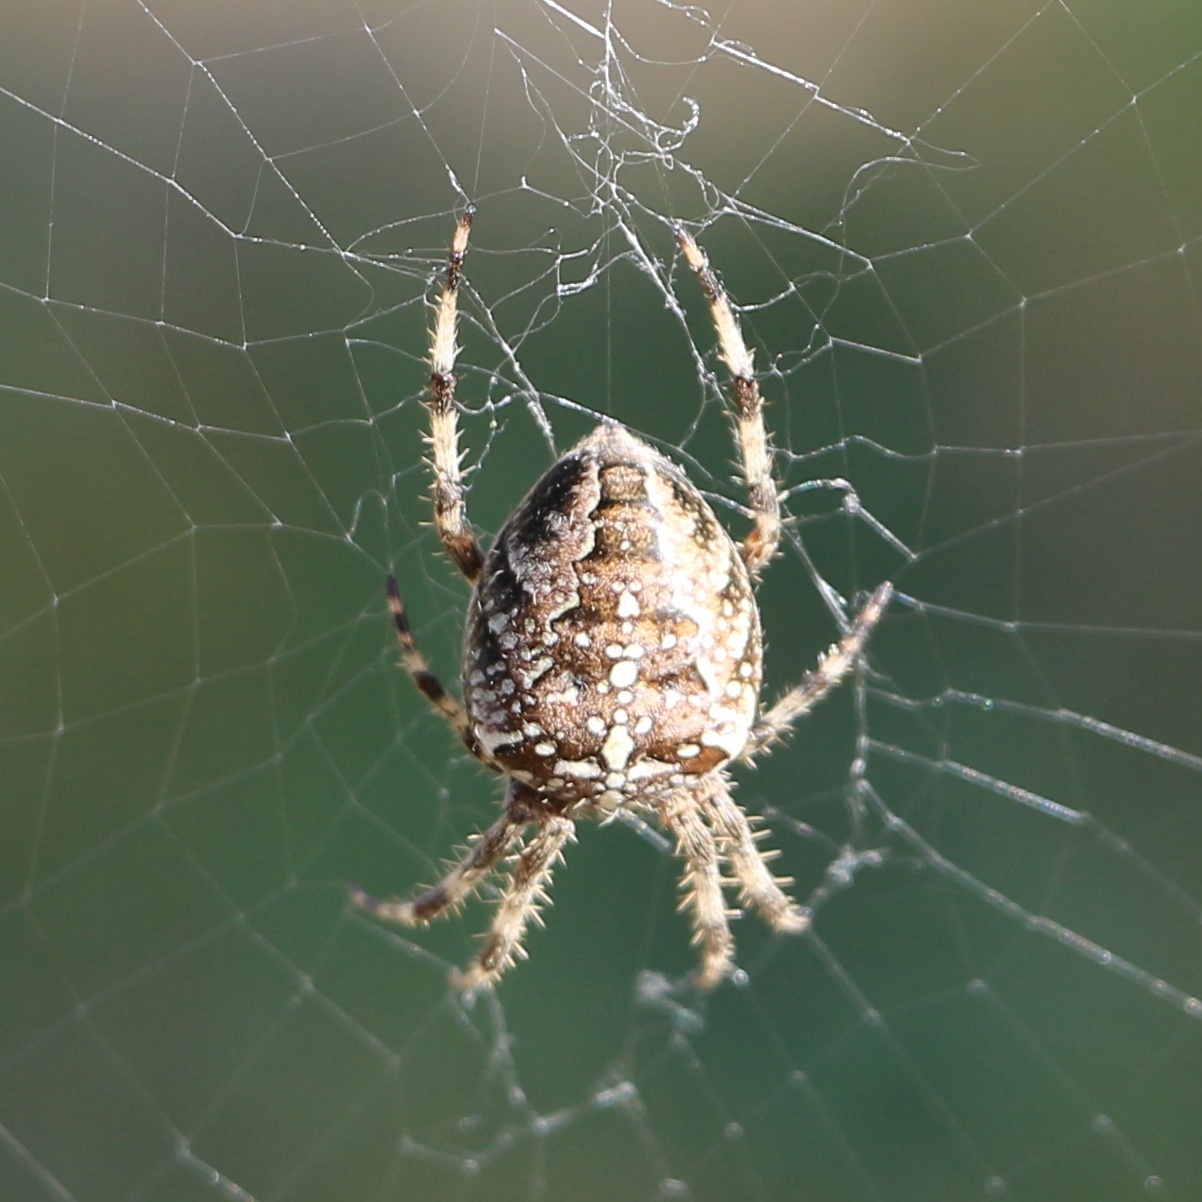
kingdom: Animalia
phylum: Arthropoda
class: Arachnida
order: Araneae
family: Araneidae
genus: Araneus
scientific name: Araneus diadematus
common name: Cross orbweaver
